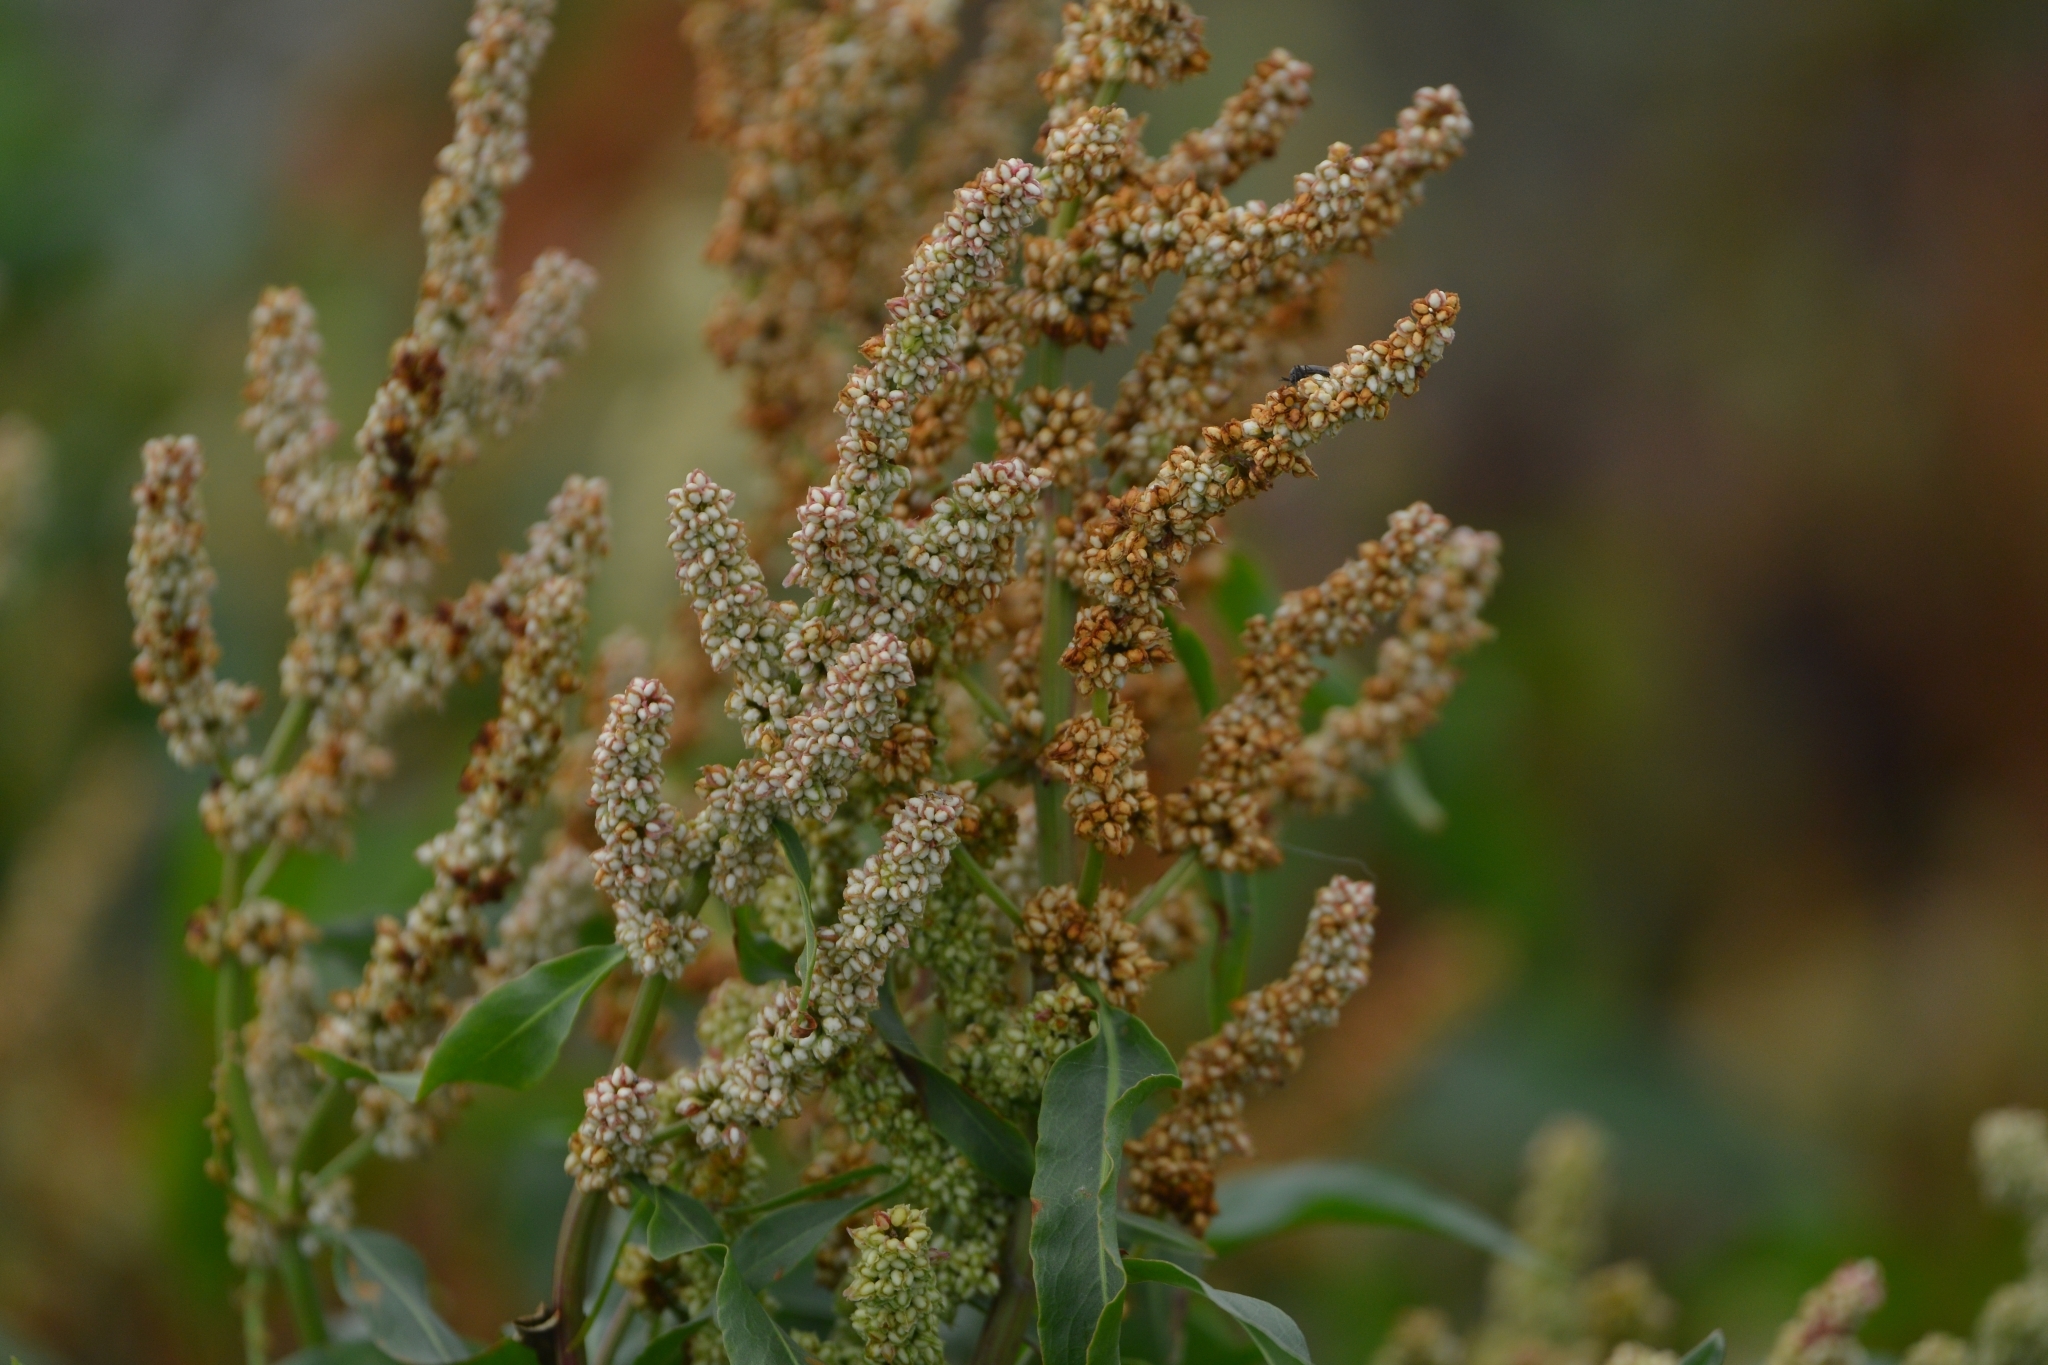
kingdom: Plantae
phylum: Tracheophyta
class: Magnoliopsida
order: Caryophyllales
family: Polygonaceae
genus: Rumex
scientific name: Rumex sibiricus
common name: Siberian dock
